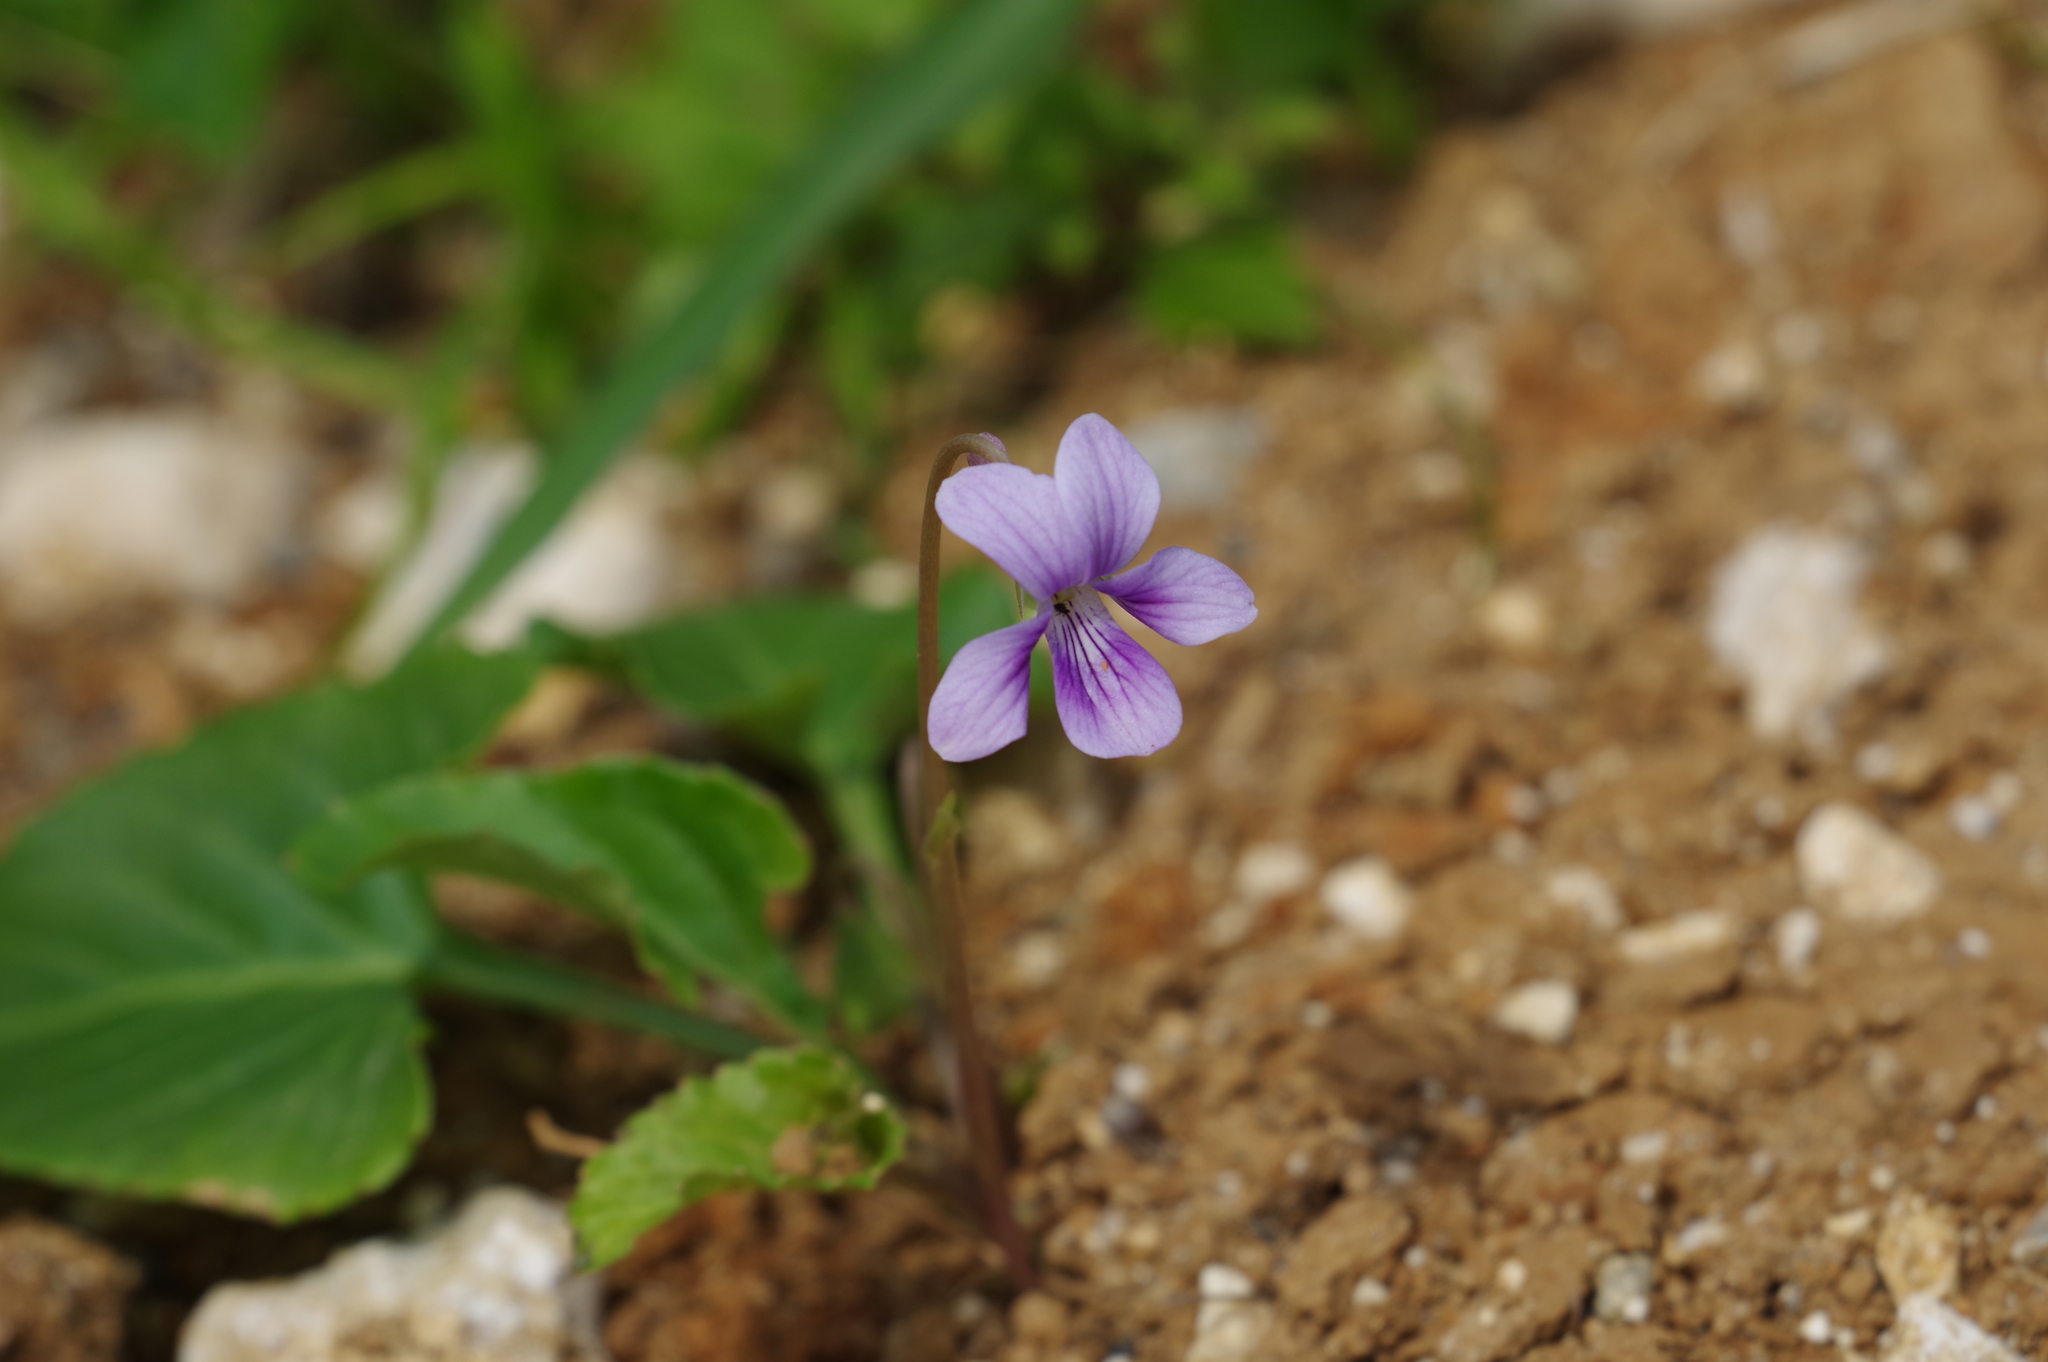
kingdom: Plantae
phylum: Tracheophyta
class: Magnoliopsida
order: Malpighiales
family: Violaceae
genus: Viola
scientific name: Viola philippica
